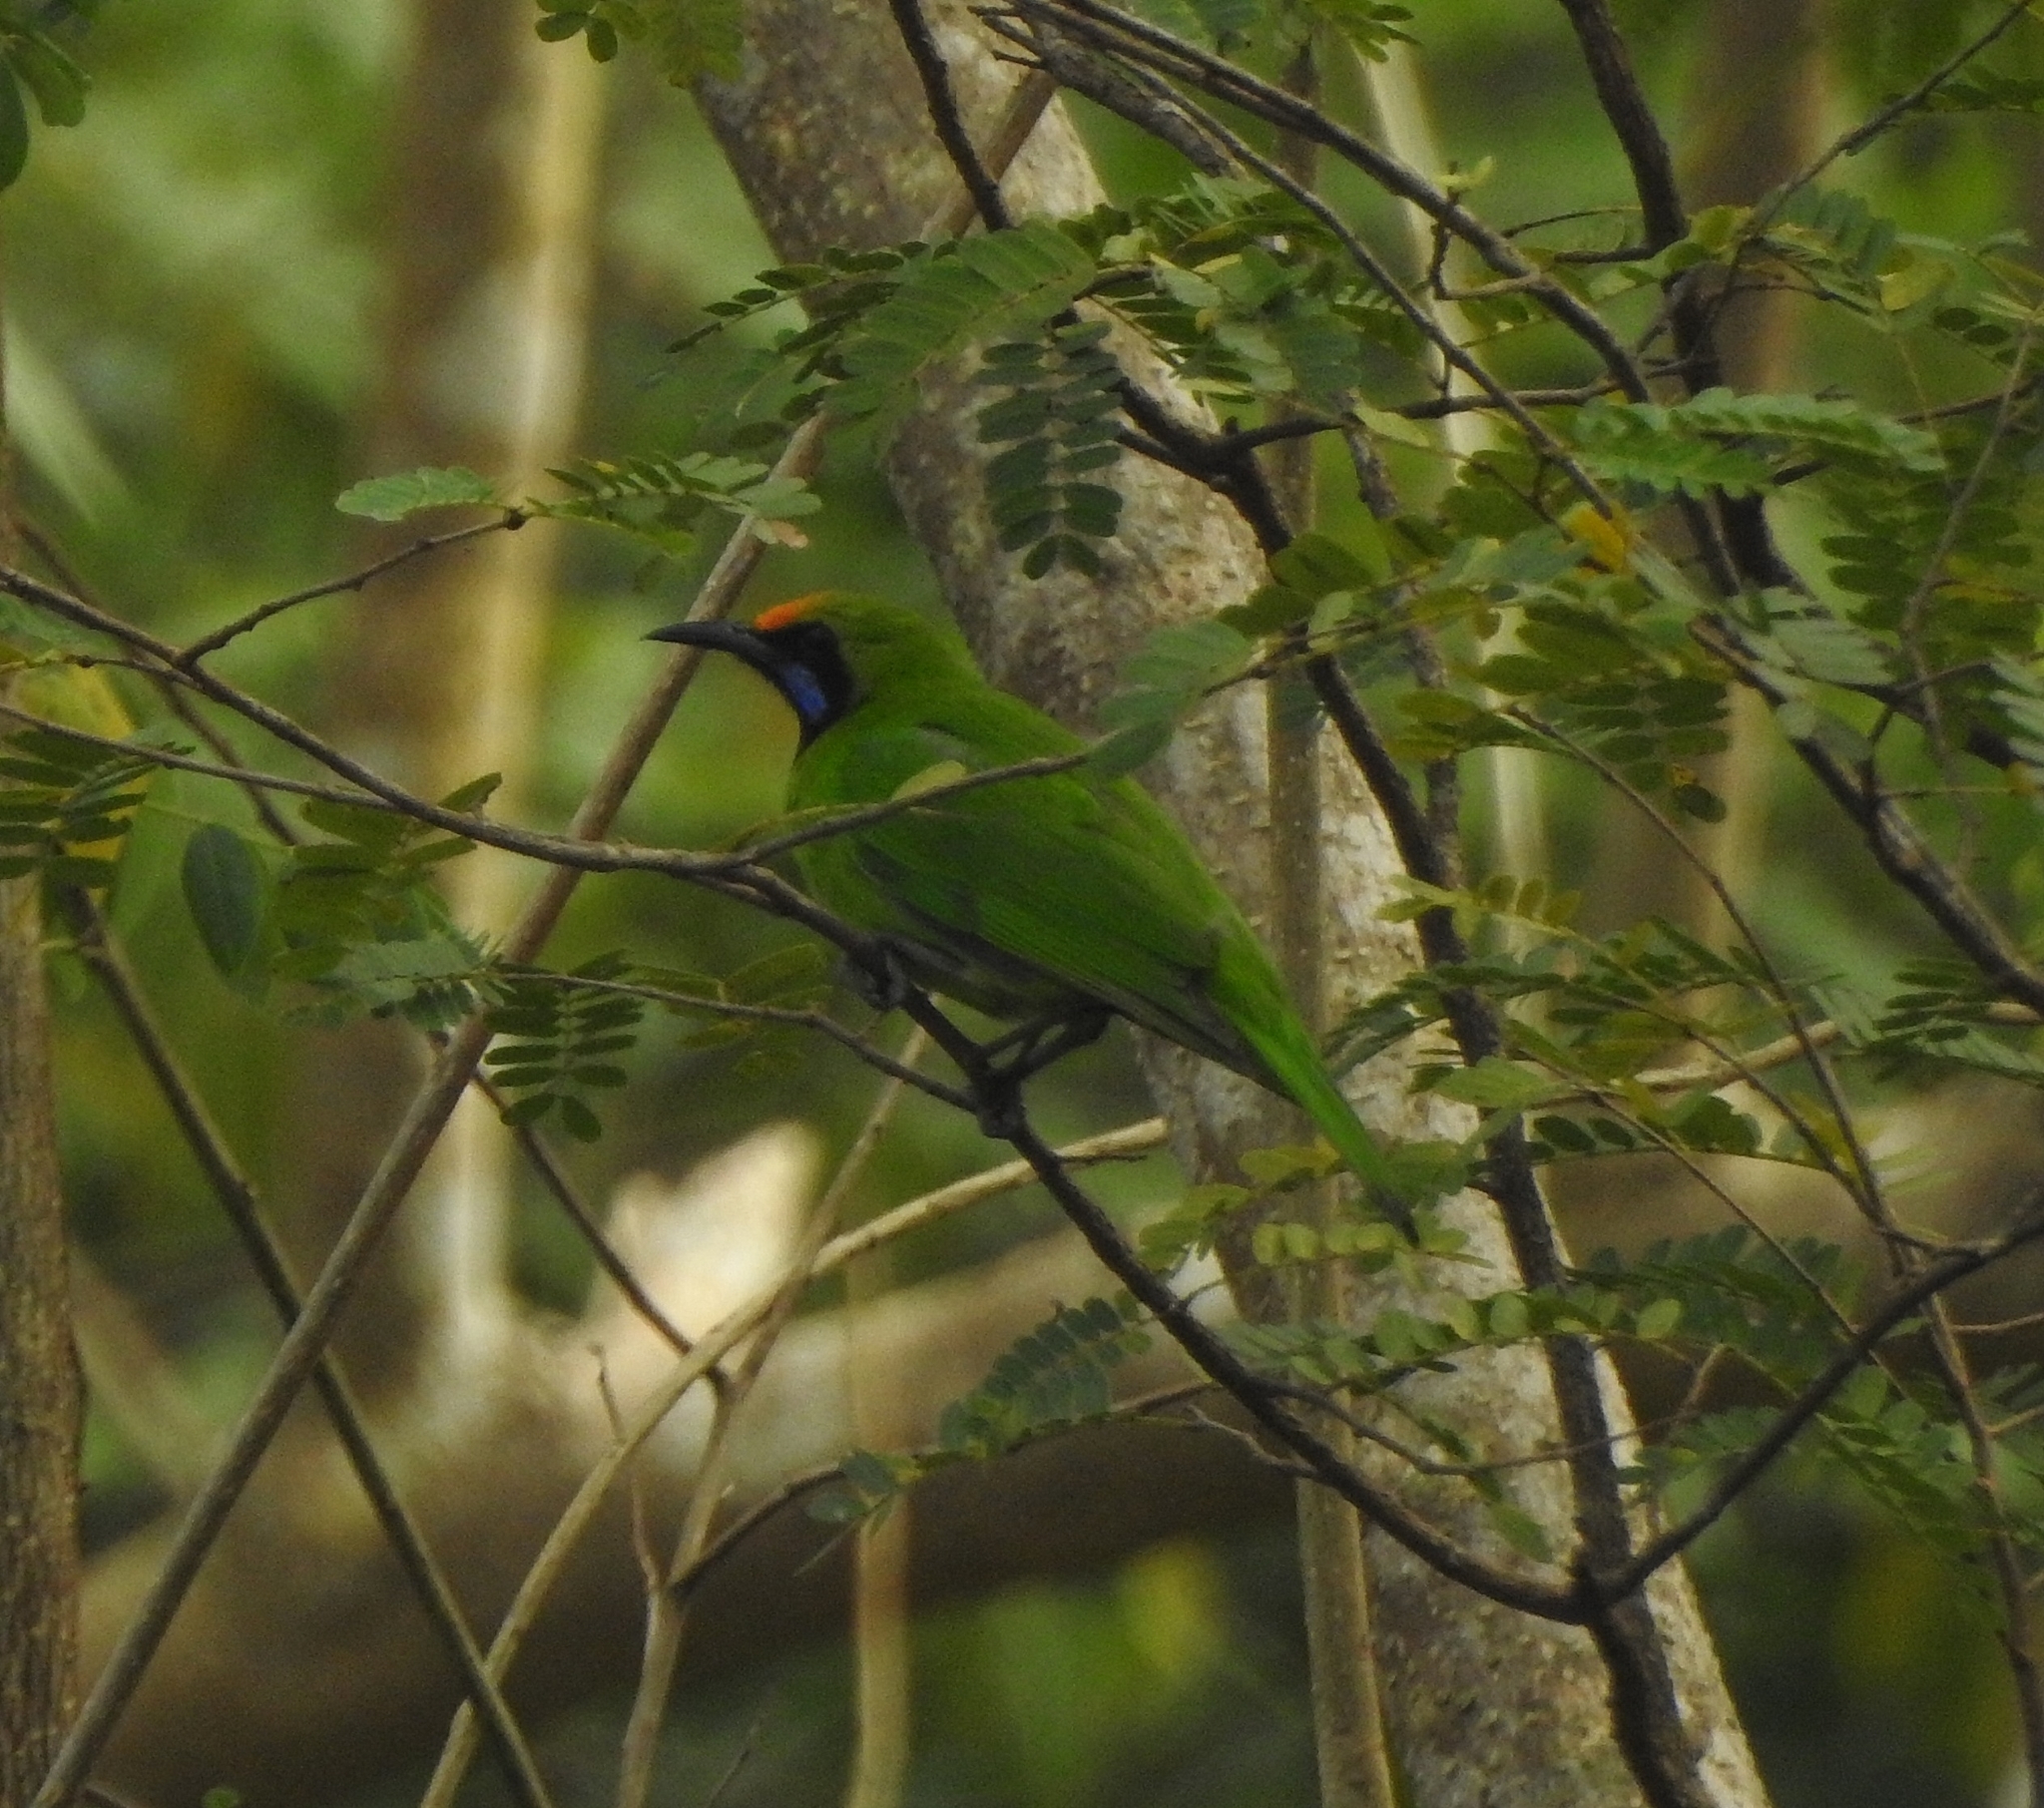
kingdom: Animalia
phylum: Chordata
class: Aves
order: Passeriformes
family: Chloropseidae
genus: Chloropsis
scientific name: Chloropsis aurifrons
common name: Golden-fronted leafbird
